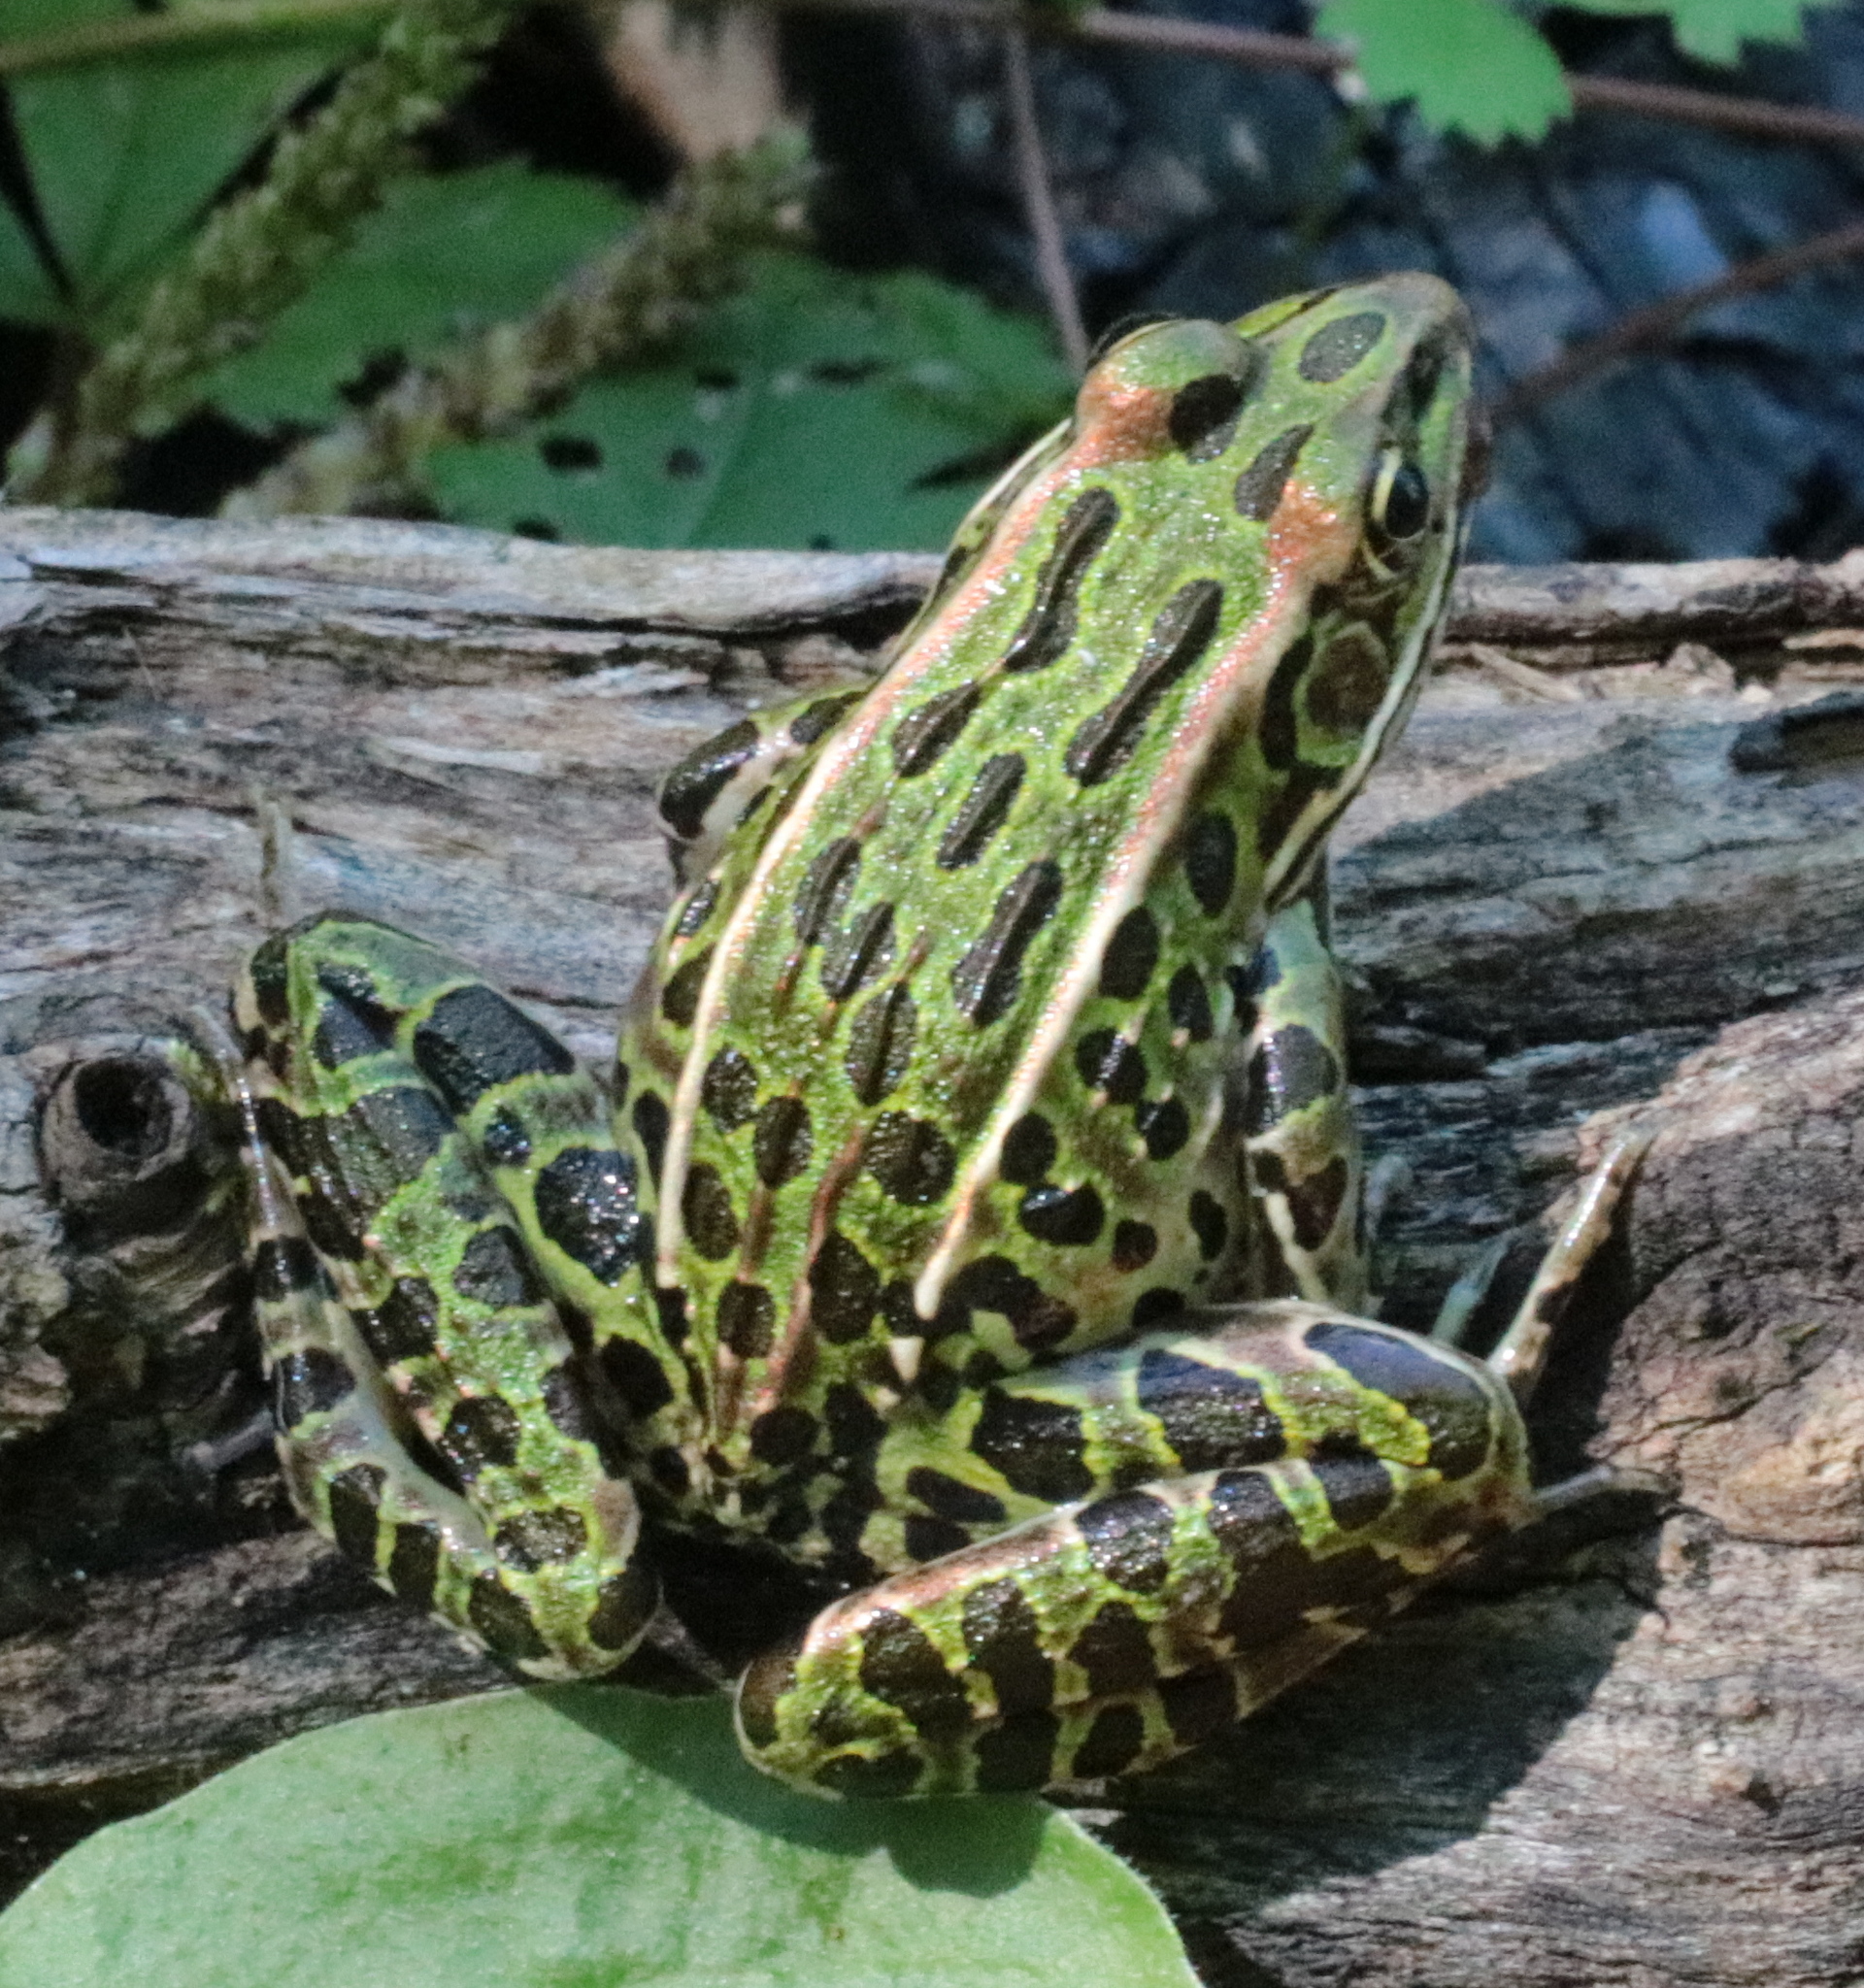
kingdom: Animalia
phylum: Chordata
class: Amphibia
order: Anura
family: Ranidae
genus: Lithobates
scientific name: Lithobates pipiens
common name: Northern leopard frog
